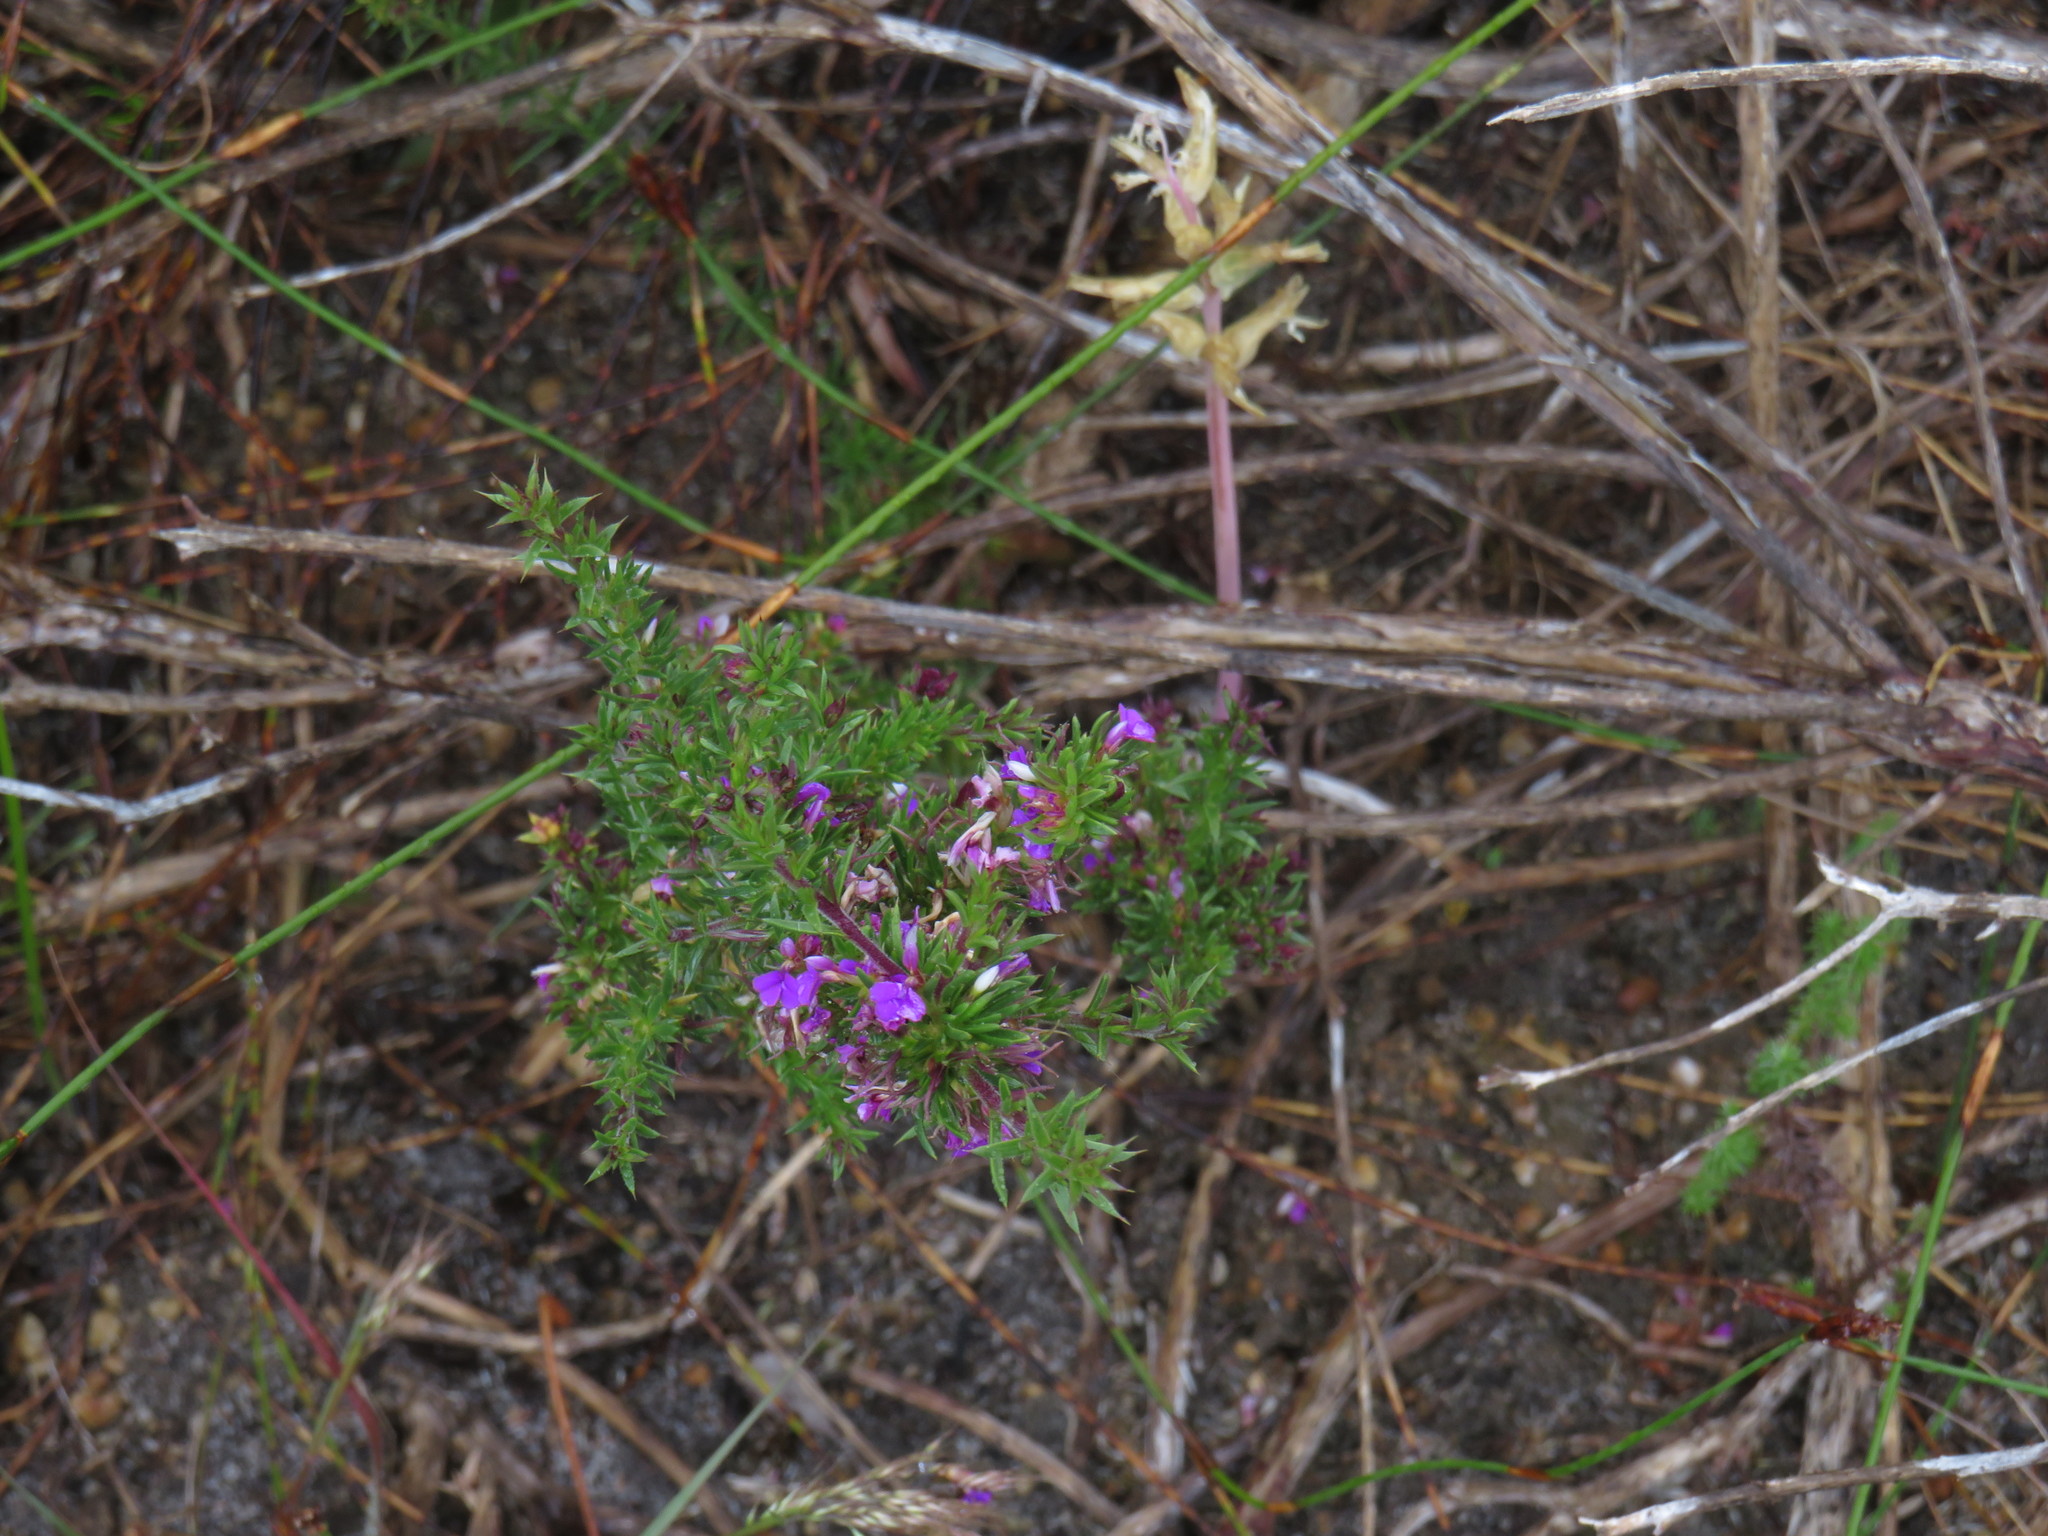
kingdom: Plantae
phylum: Tracheophyta
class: Magnoliopsida
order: Fabales
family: Polygalaceae
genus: Muraltia
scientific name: Muraltia heisteria
